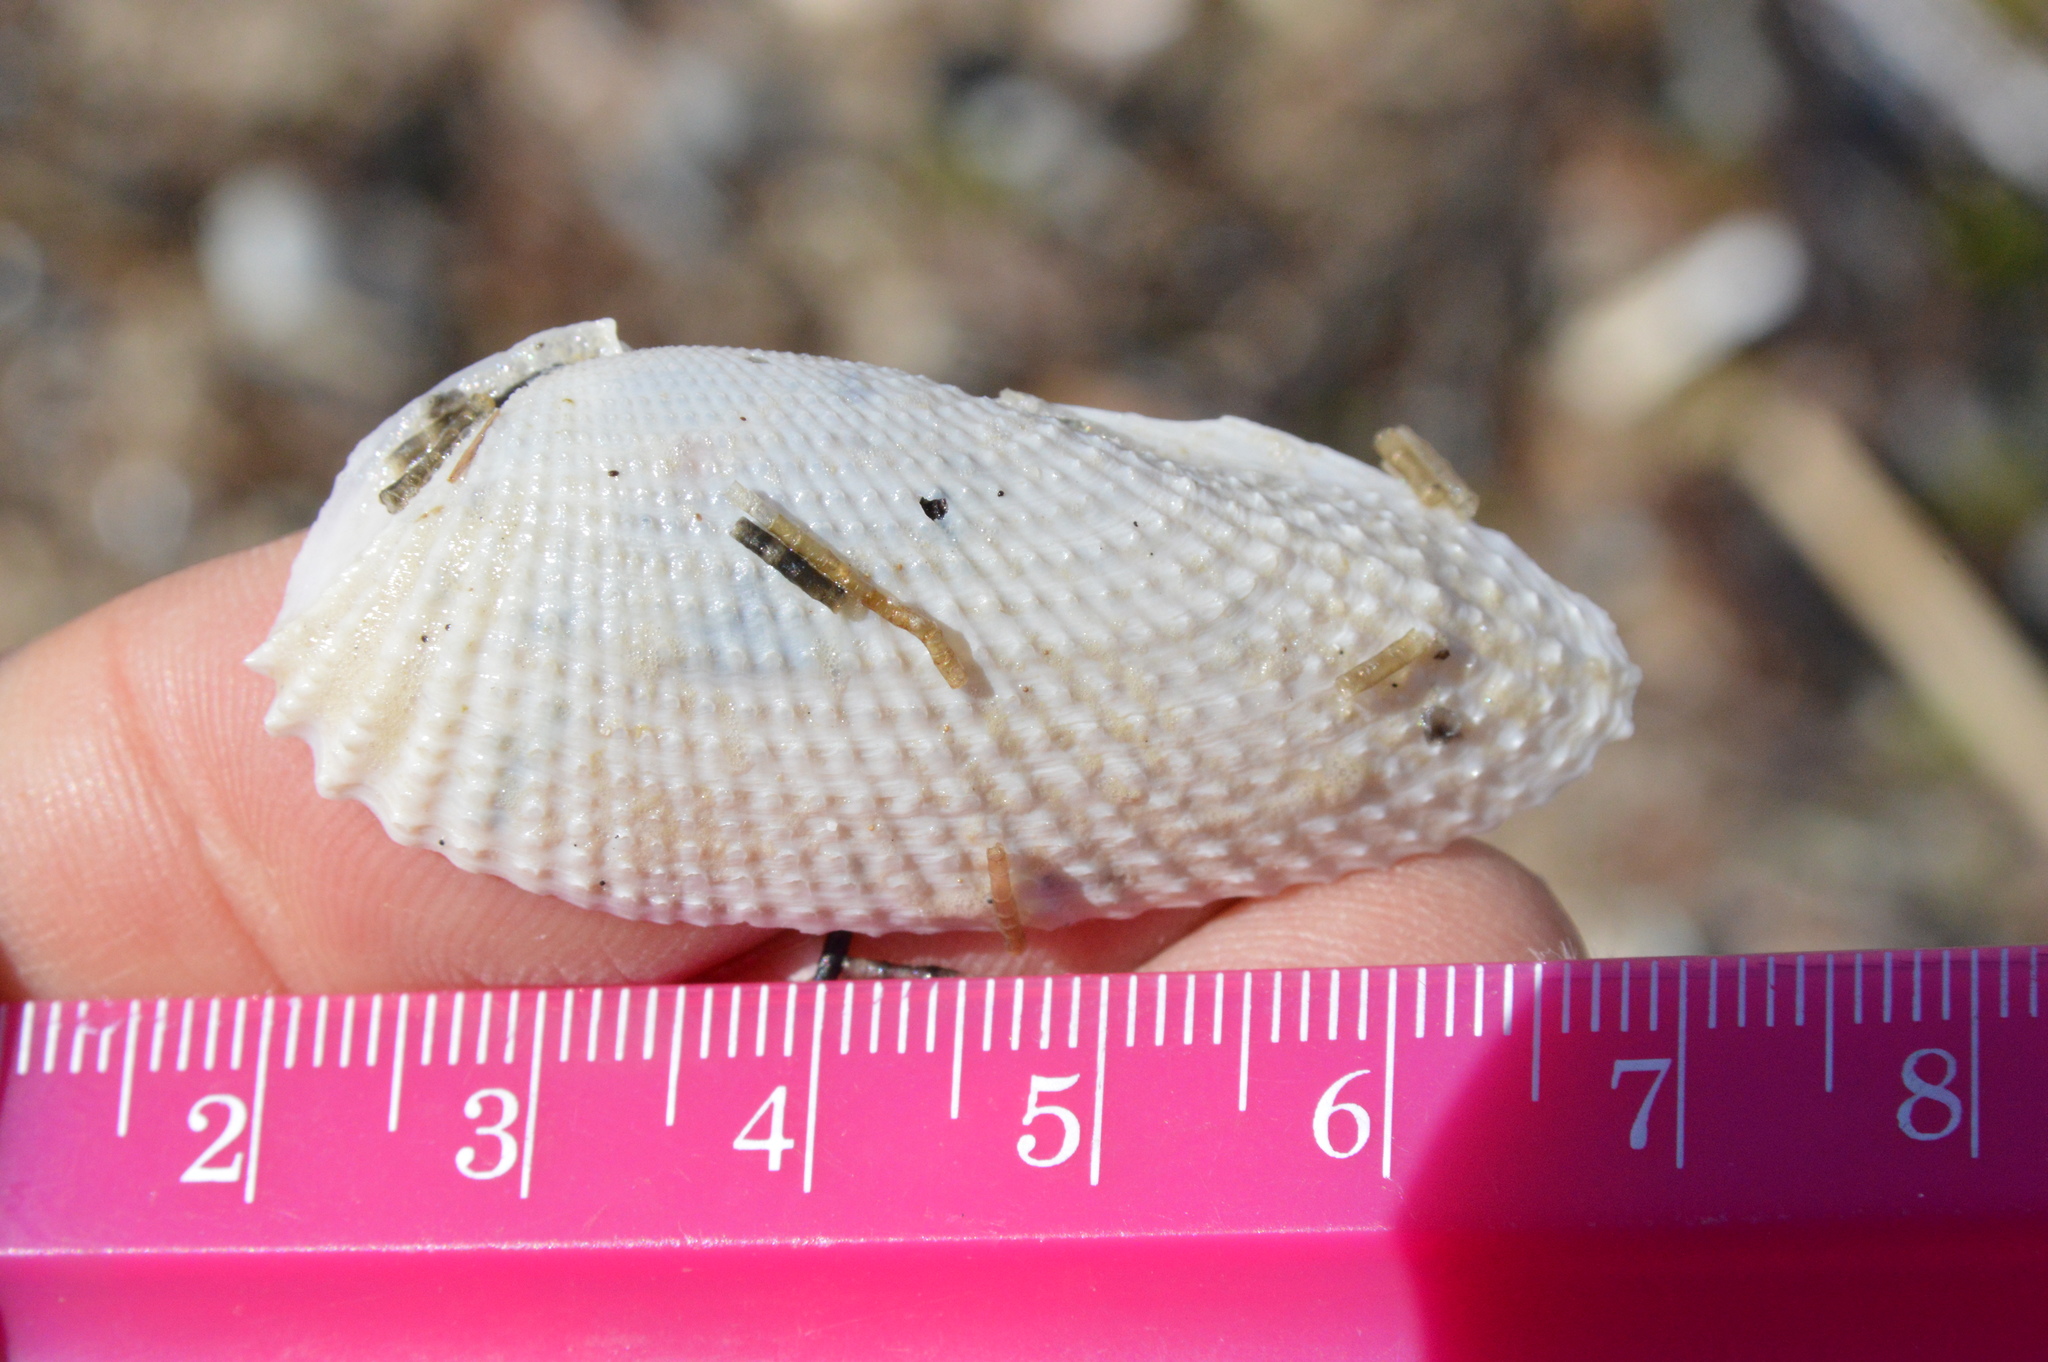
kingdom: Animalia
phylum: Mollusca
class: Bivalvia
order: Myida
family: Pholadidae
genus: Cyrtopleura
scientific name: Cyrtopleura costata
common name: Angel wing
